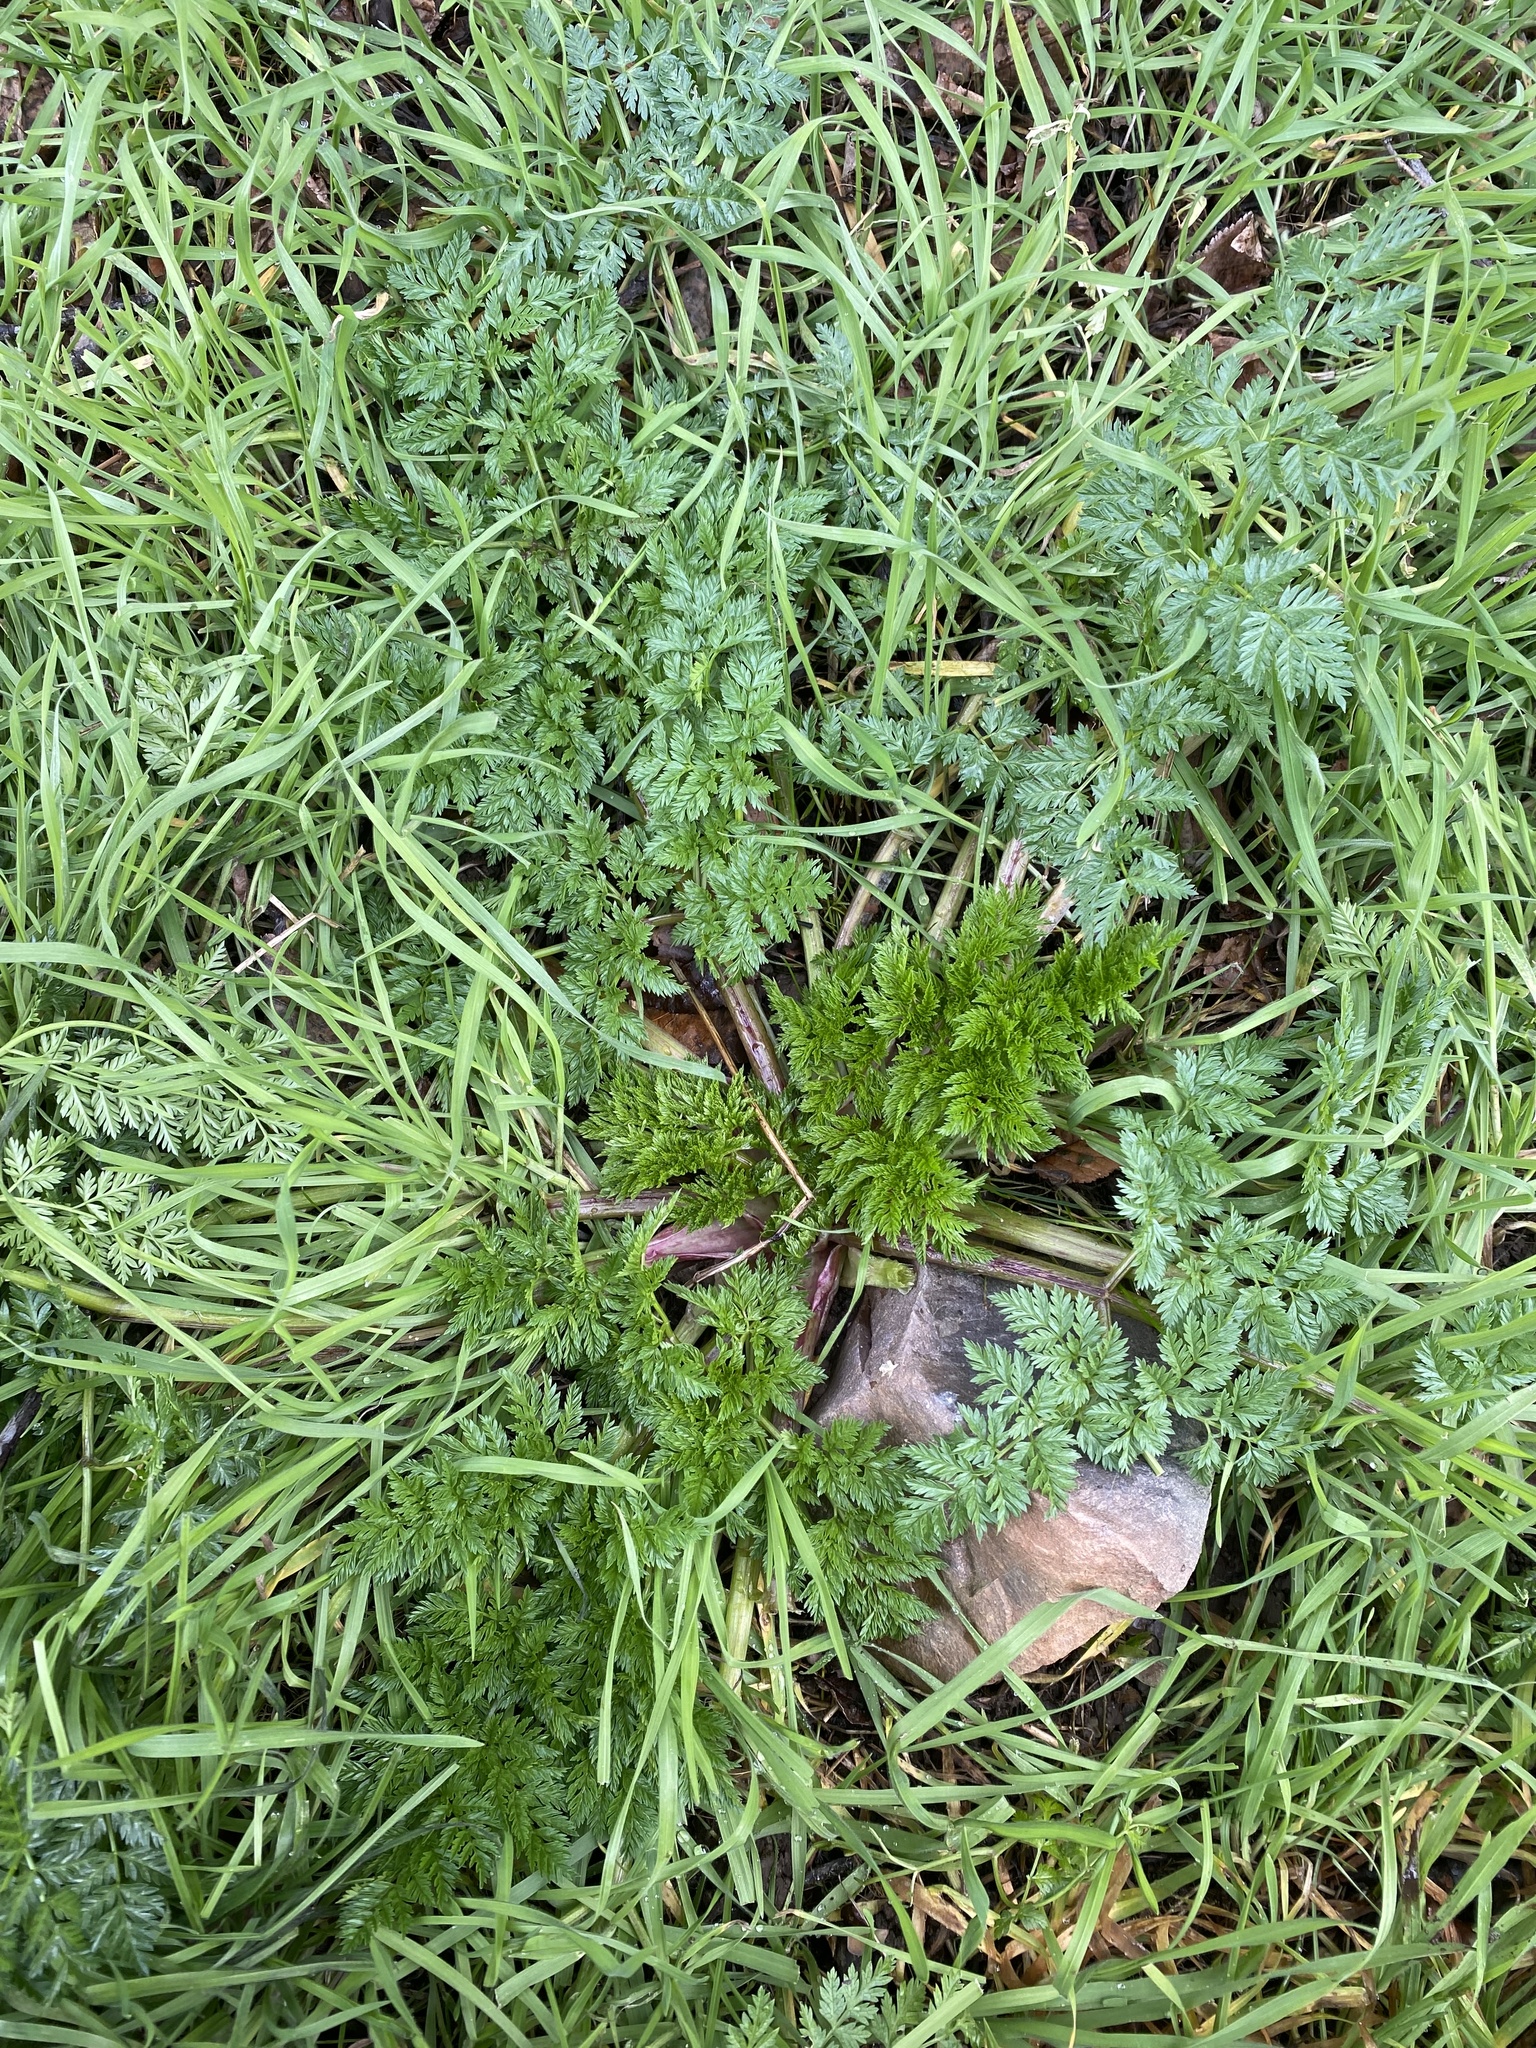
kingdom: Plantae
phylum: Tracheophyta
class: Magnoliopsida
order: Apiales
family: Apiaceae
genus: Conium
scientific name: Conium maculatum
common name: Hemlock
